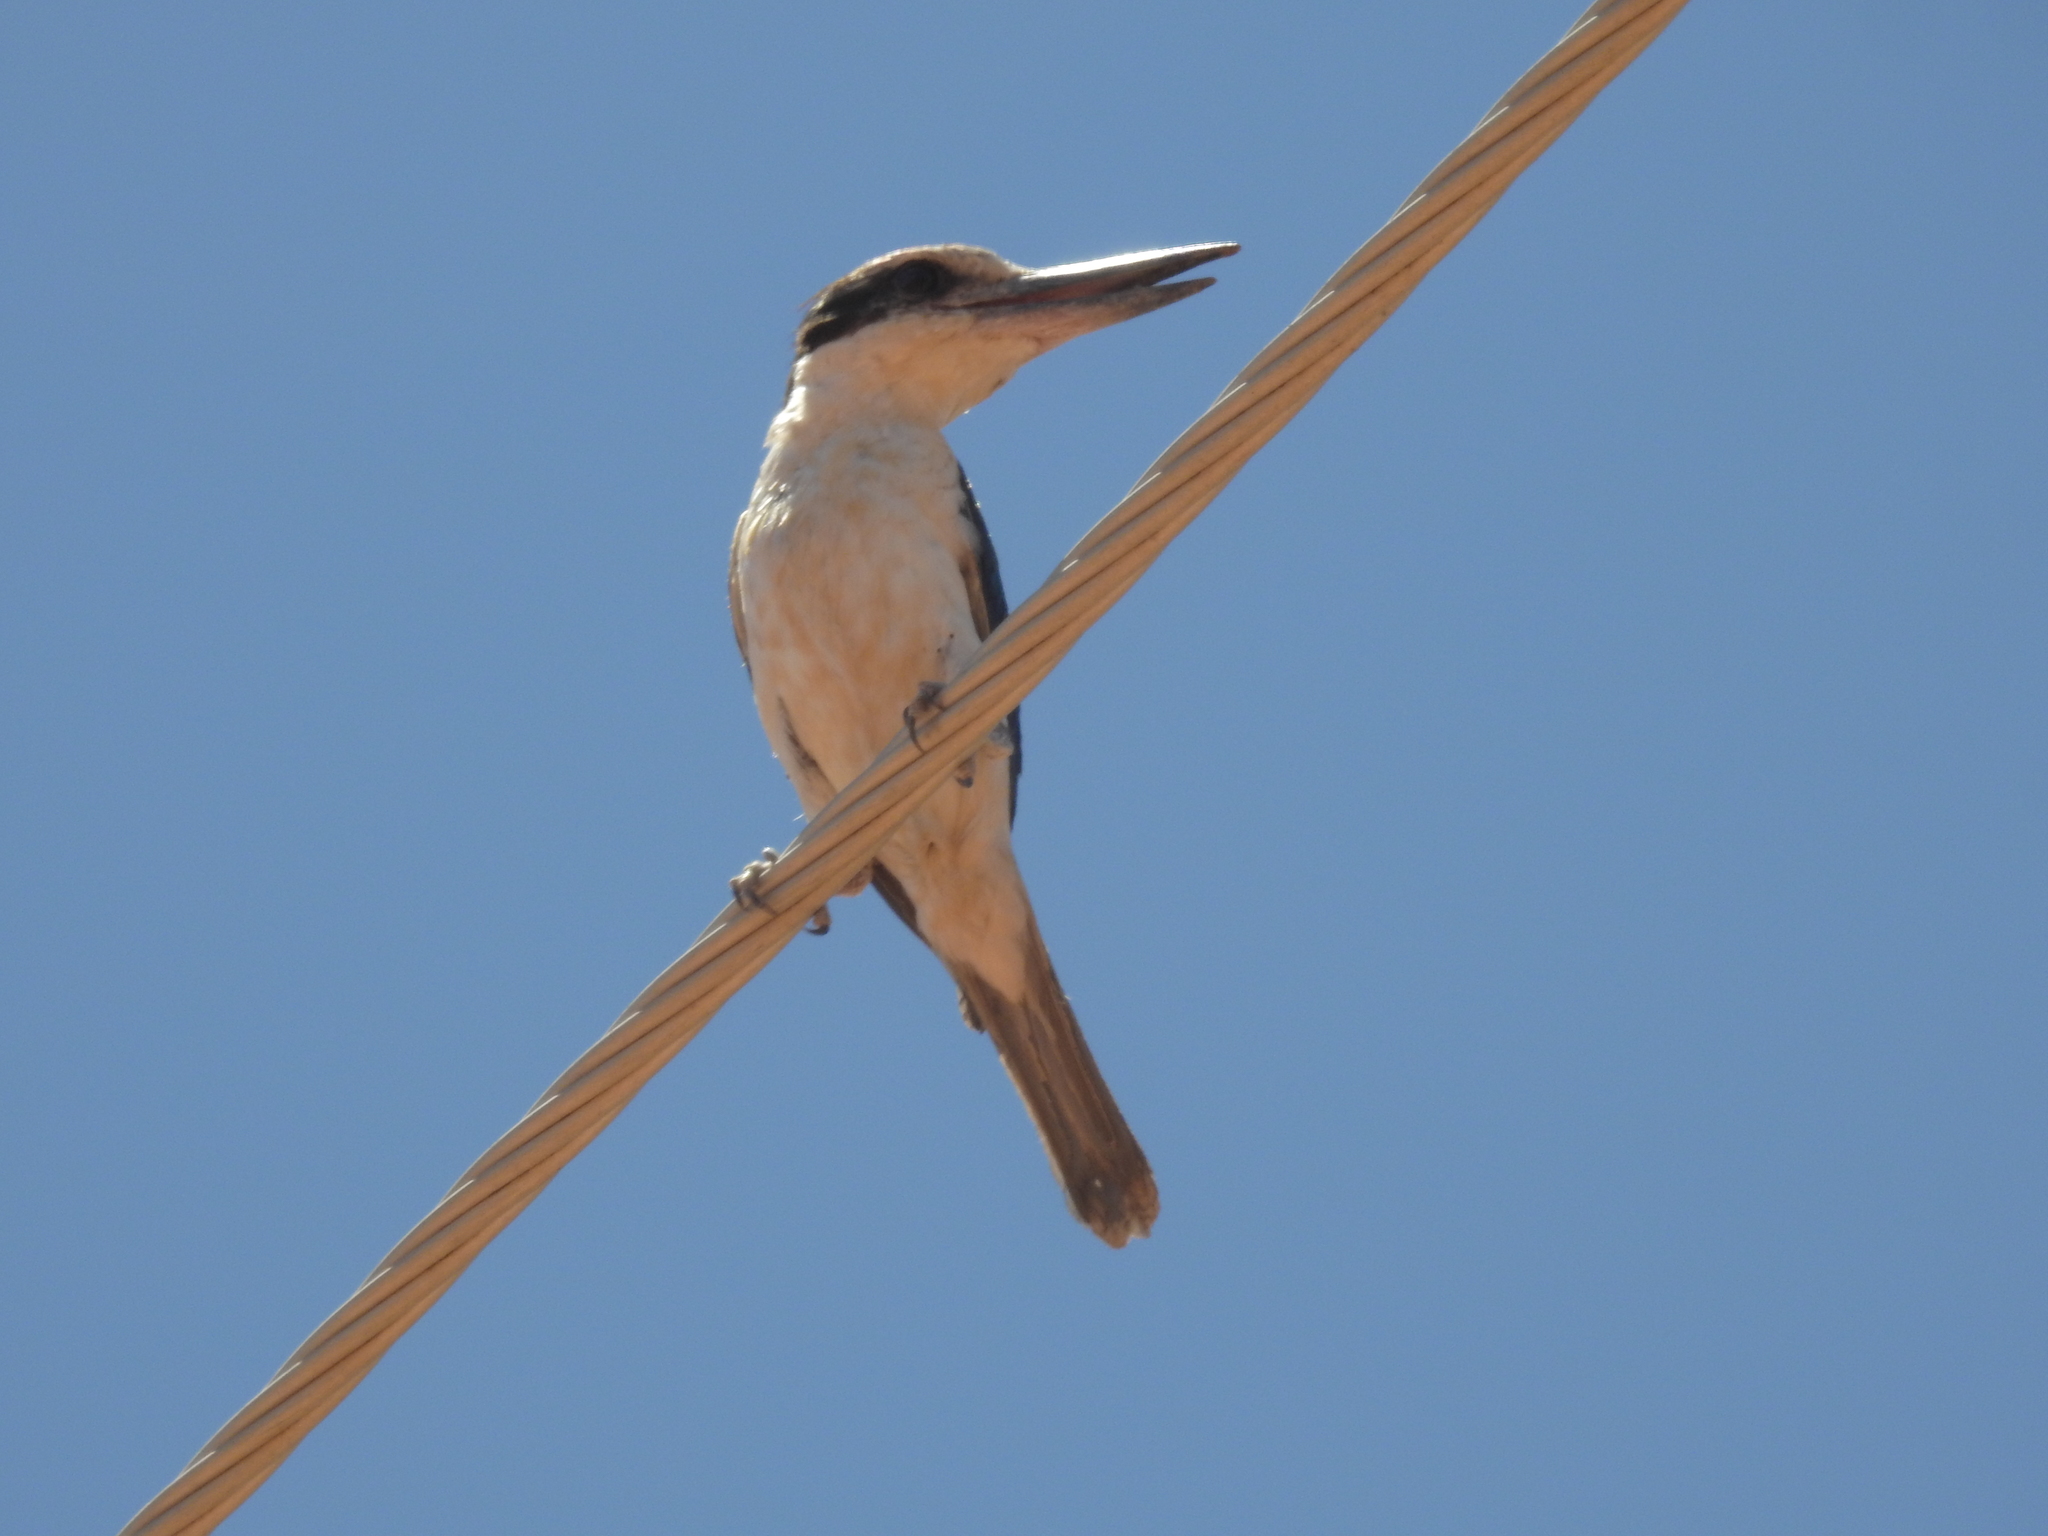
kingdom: Animalia
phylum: Chordata
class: Aves
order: Coraciiformes
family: Alcedinidae
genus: Todiramphus
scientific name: Todiramphus pyrrhopygius
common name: Red-backed kingfisher
